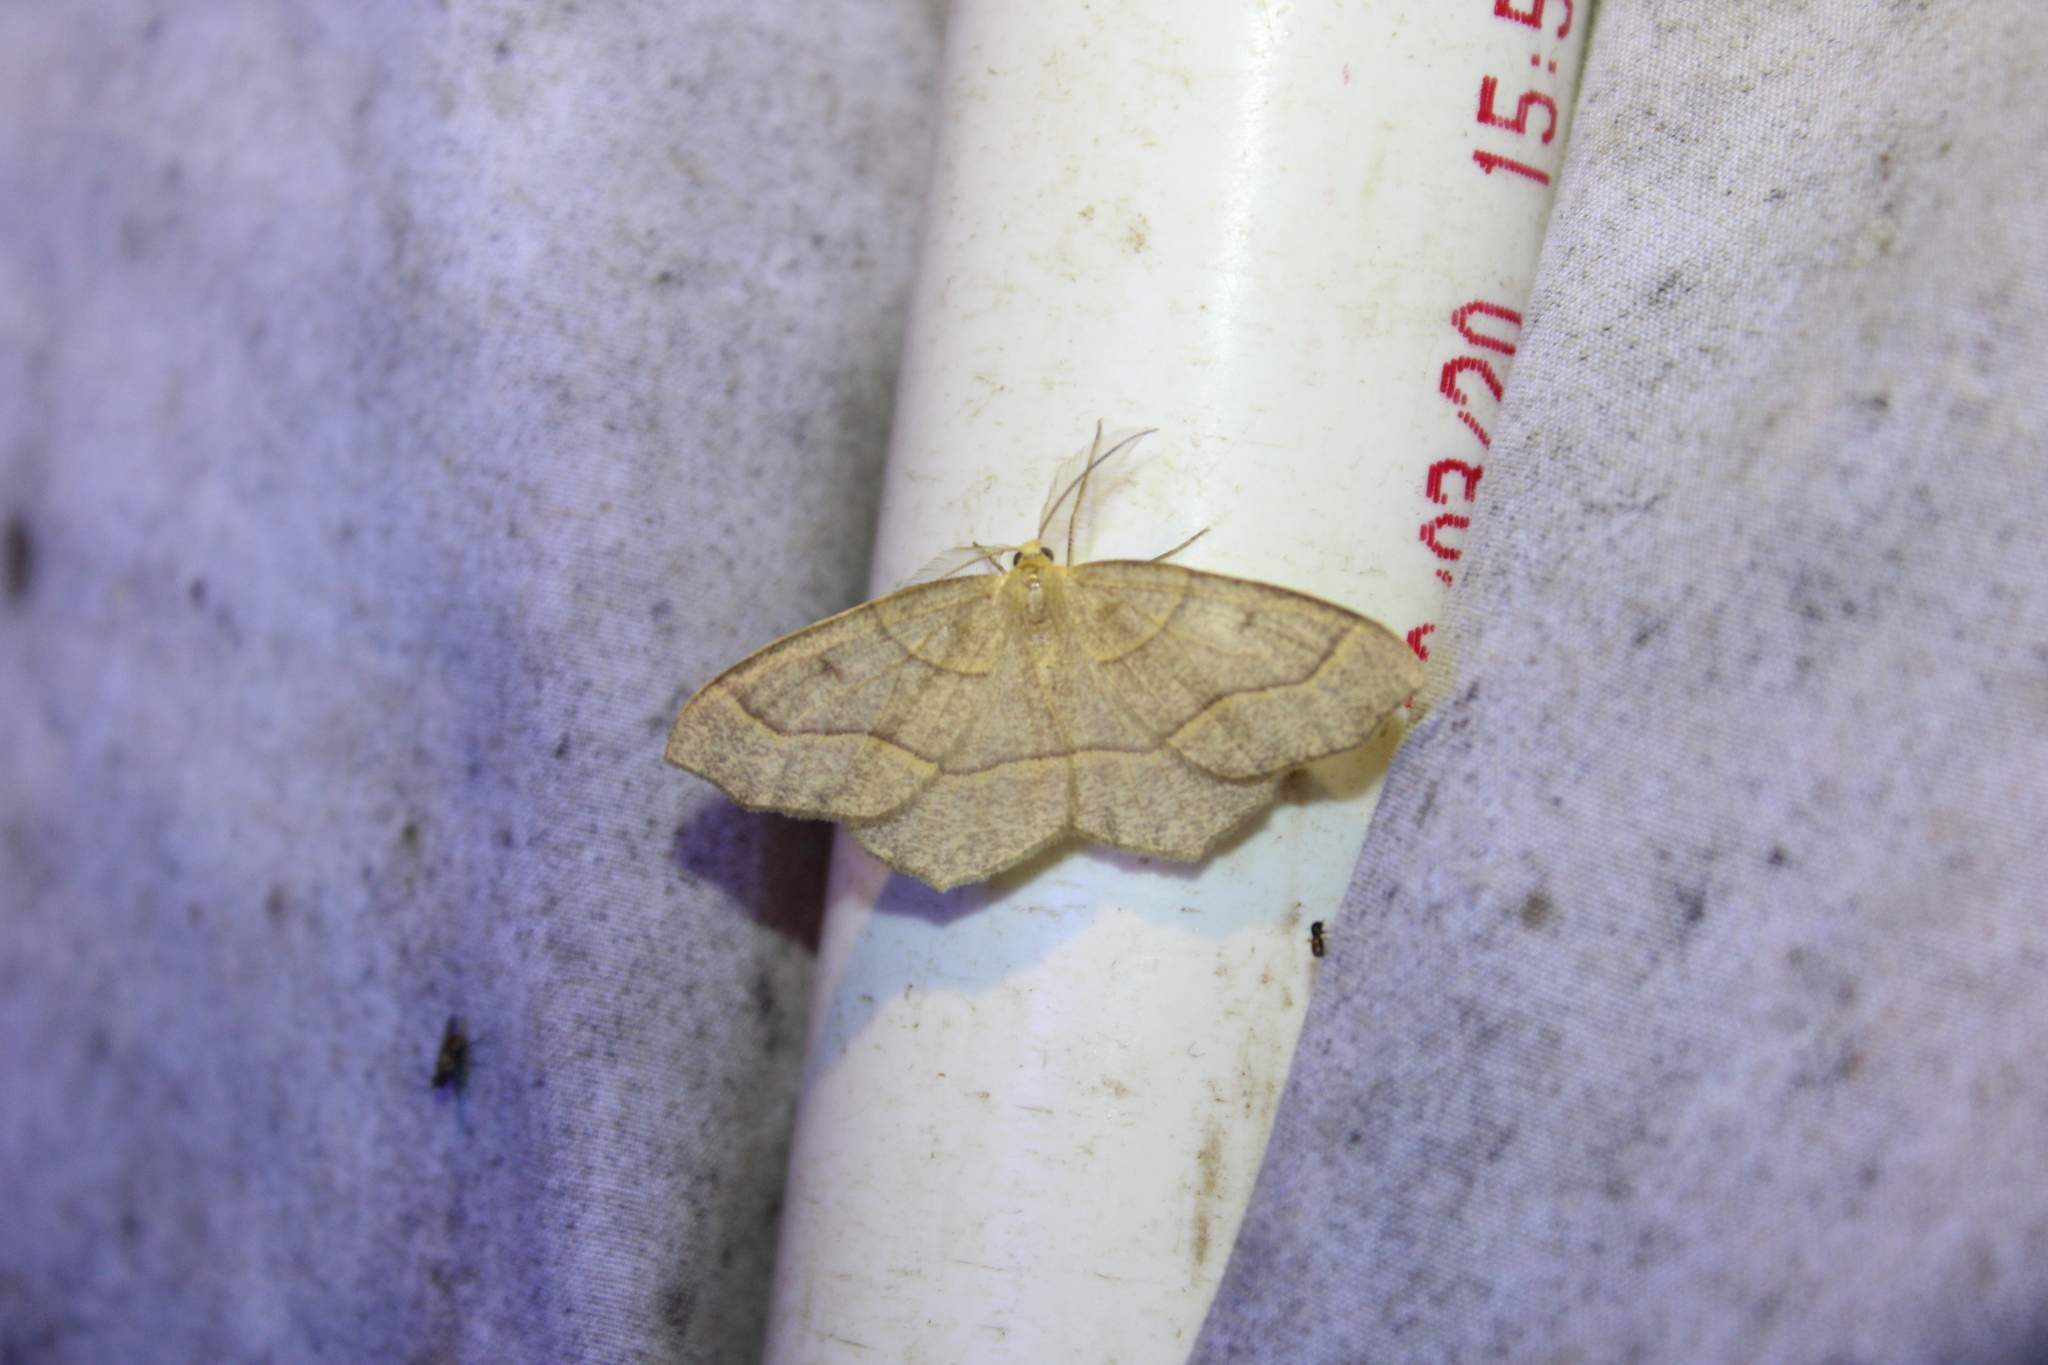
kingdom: Animalia
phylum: Arthropoda
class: Insecta
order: Lepidoptera
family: Geometridae
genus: Lambdina
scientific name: Lambdina fiscellaria
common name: Hemlock looper
